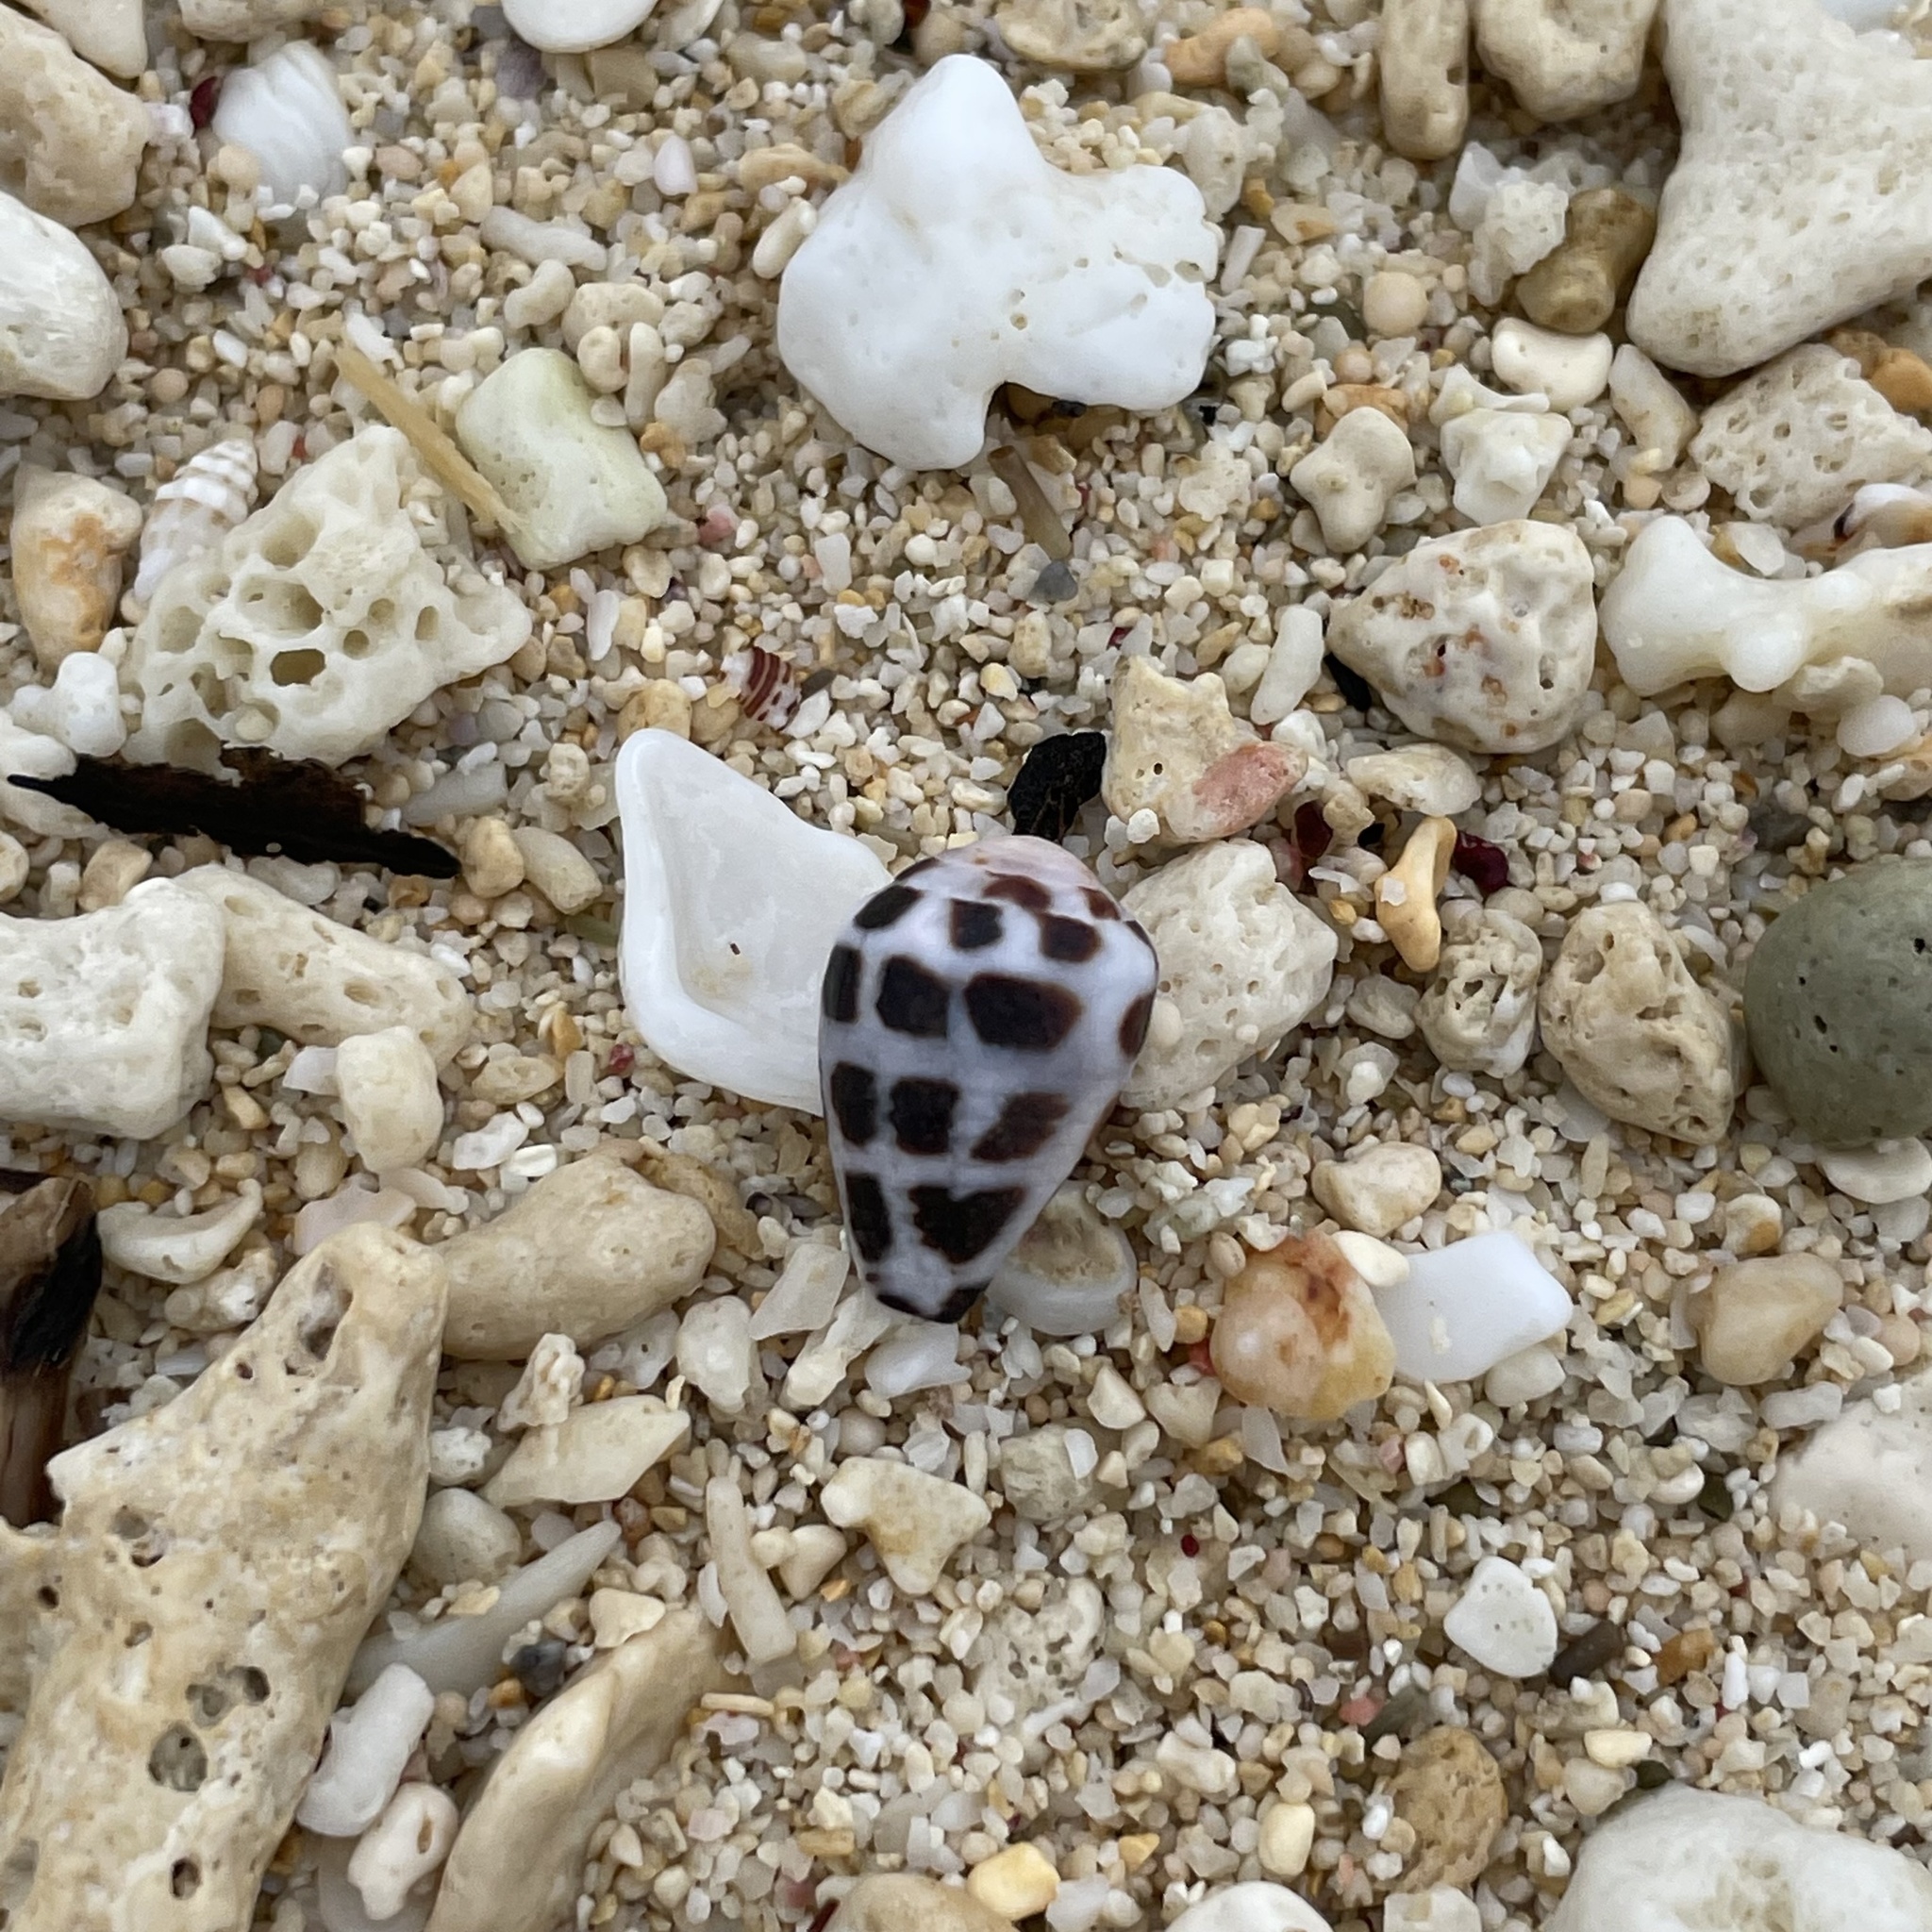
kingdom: Animalia
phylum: Mollusca
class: Gastropoda
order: Neogastropoda
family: Conidae
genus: Conus
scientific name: Conus ebraeus
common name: Hebrew cone
